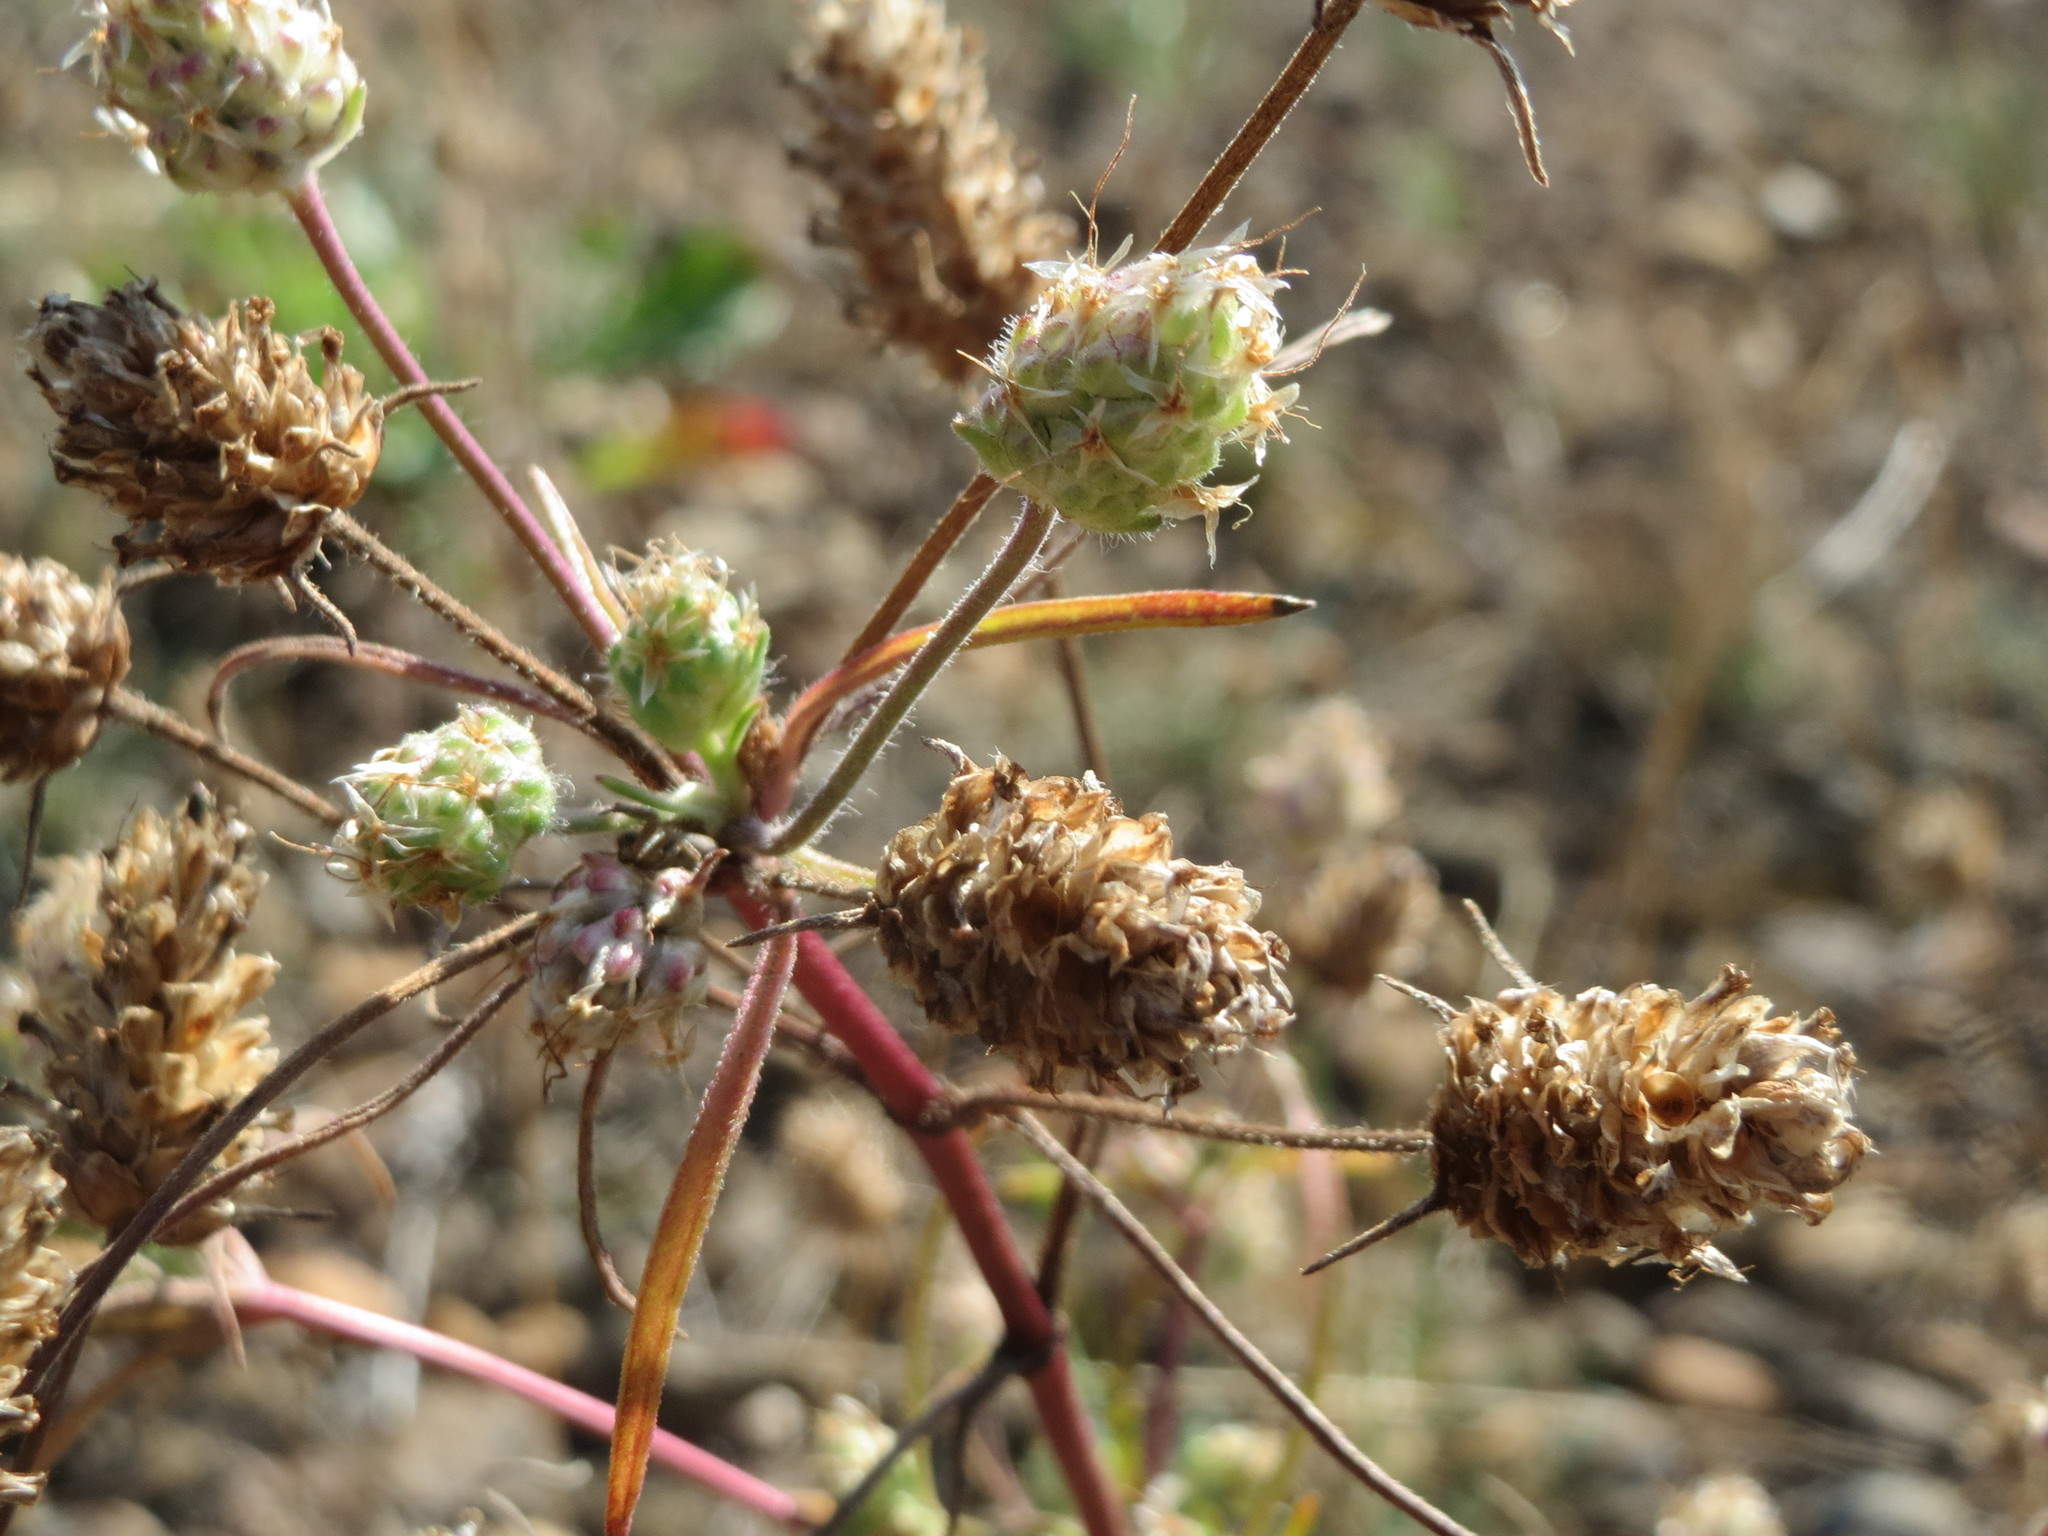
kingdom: Plantae
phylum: Tracheophyta
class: Magnoliopsida
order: Lamiales
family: Plantaginaceae
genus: Plantago
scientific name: Plantago arenaria
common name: Branched plantain
